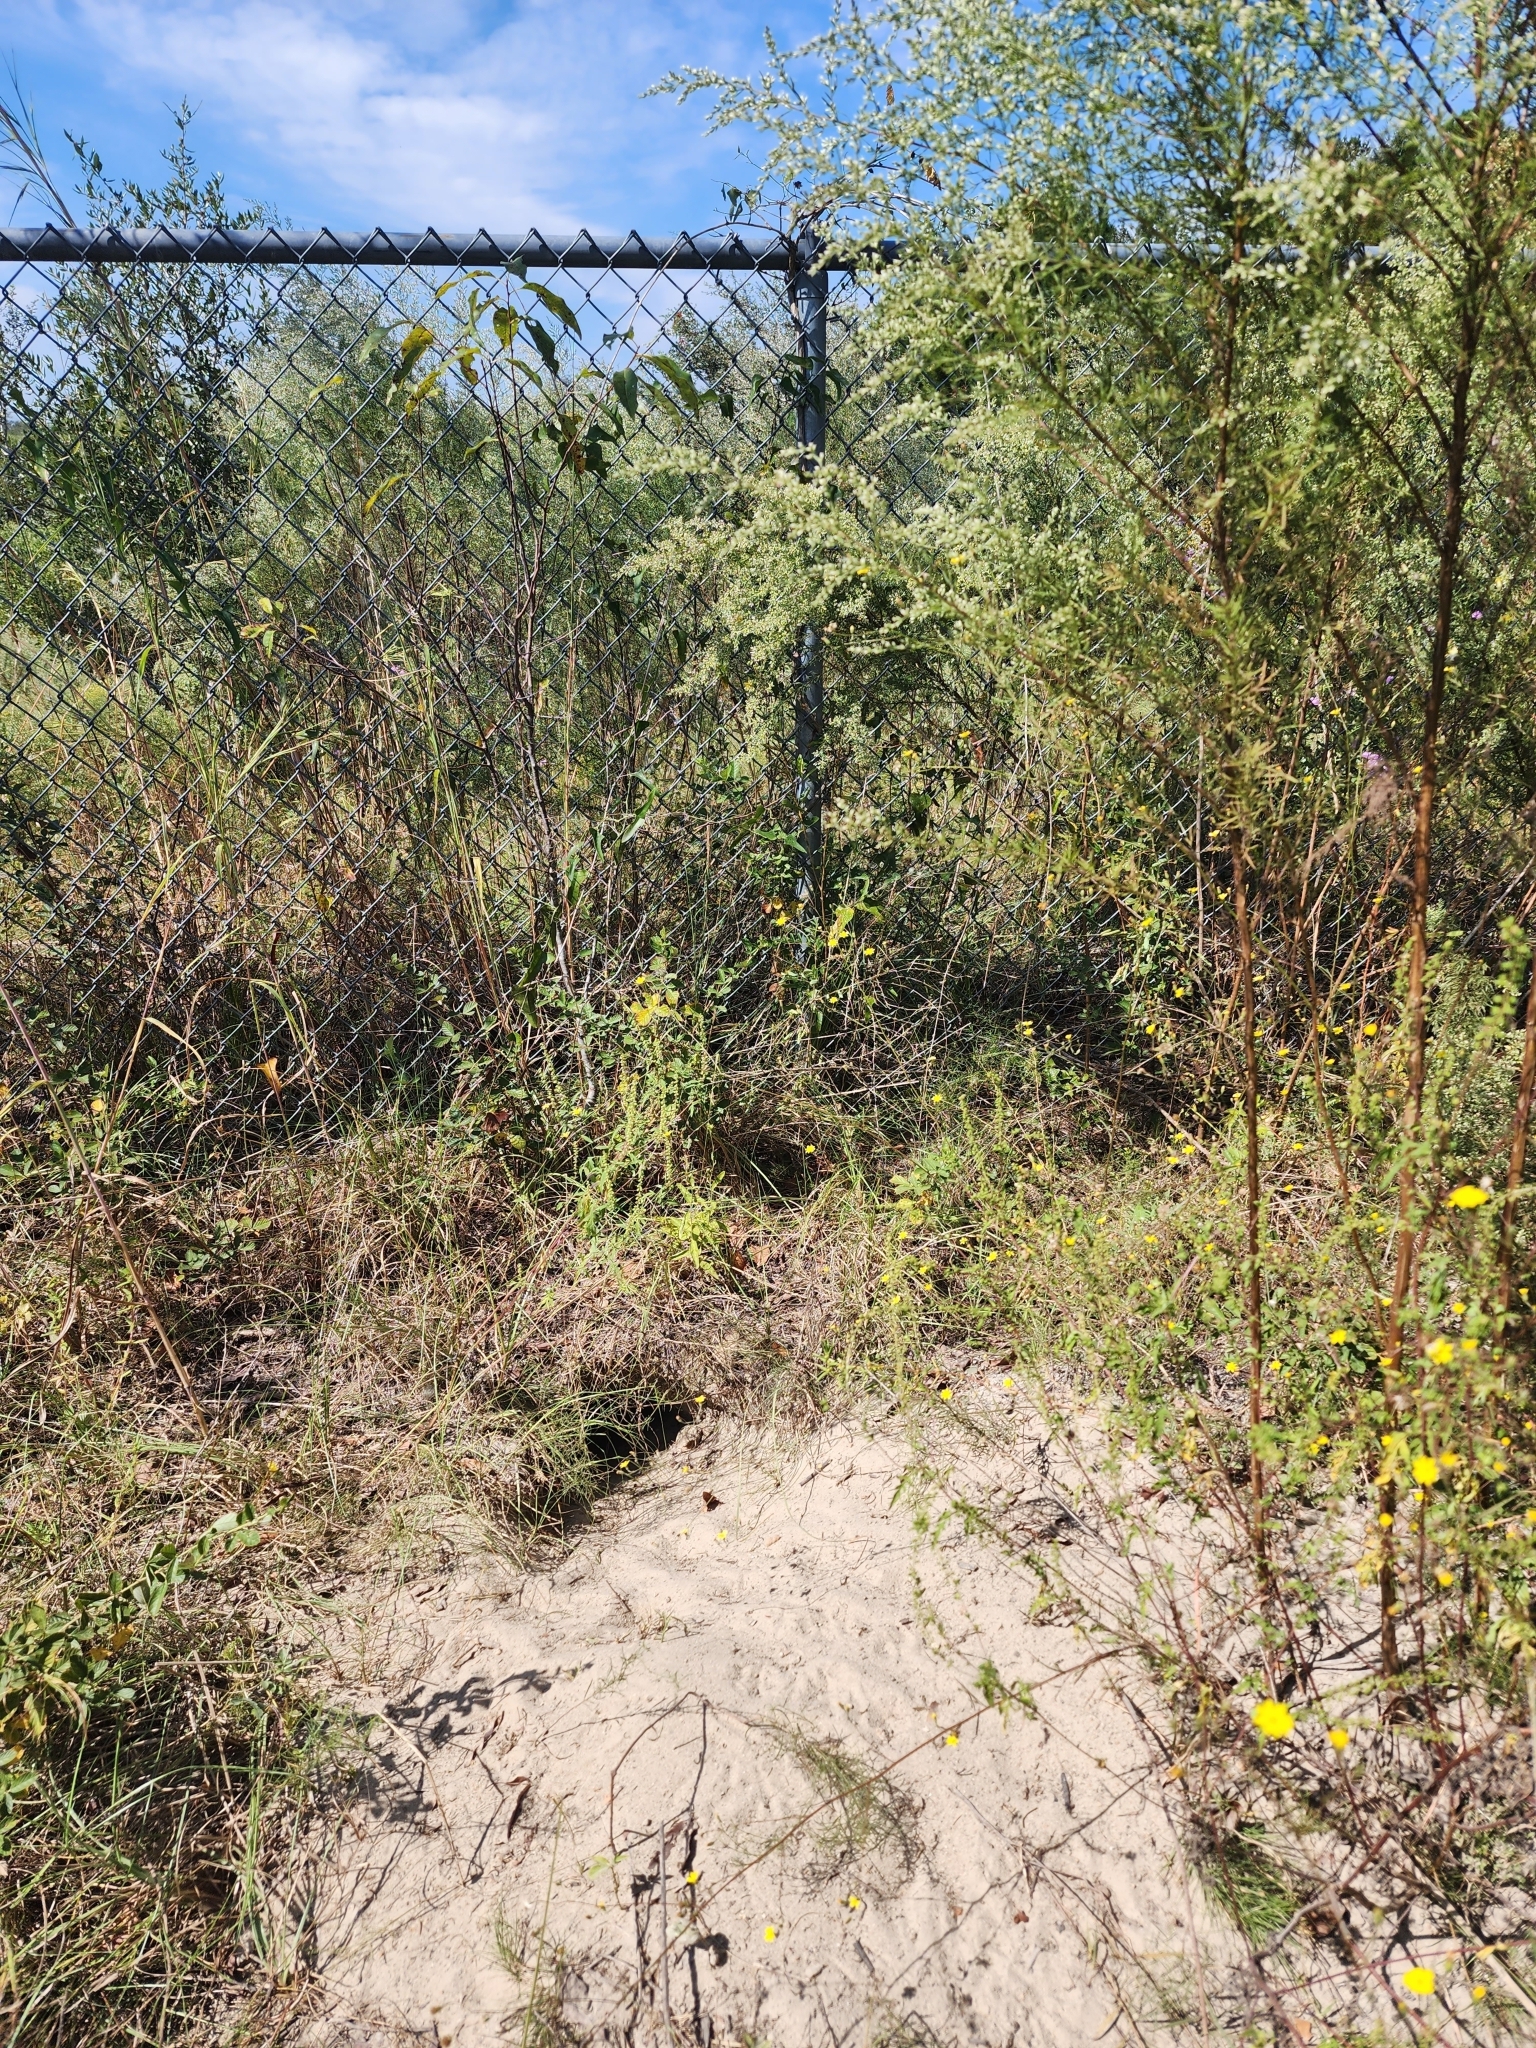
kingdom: Animalia
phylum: Chordata
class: Testudines
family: Testudinidae
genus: Gopherus
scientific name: Gopherus polyphemus
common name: Florida gopher tortoise
